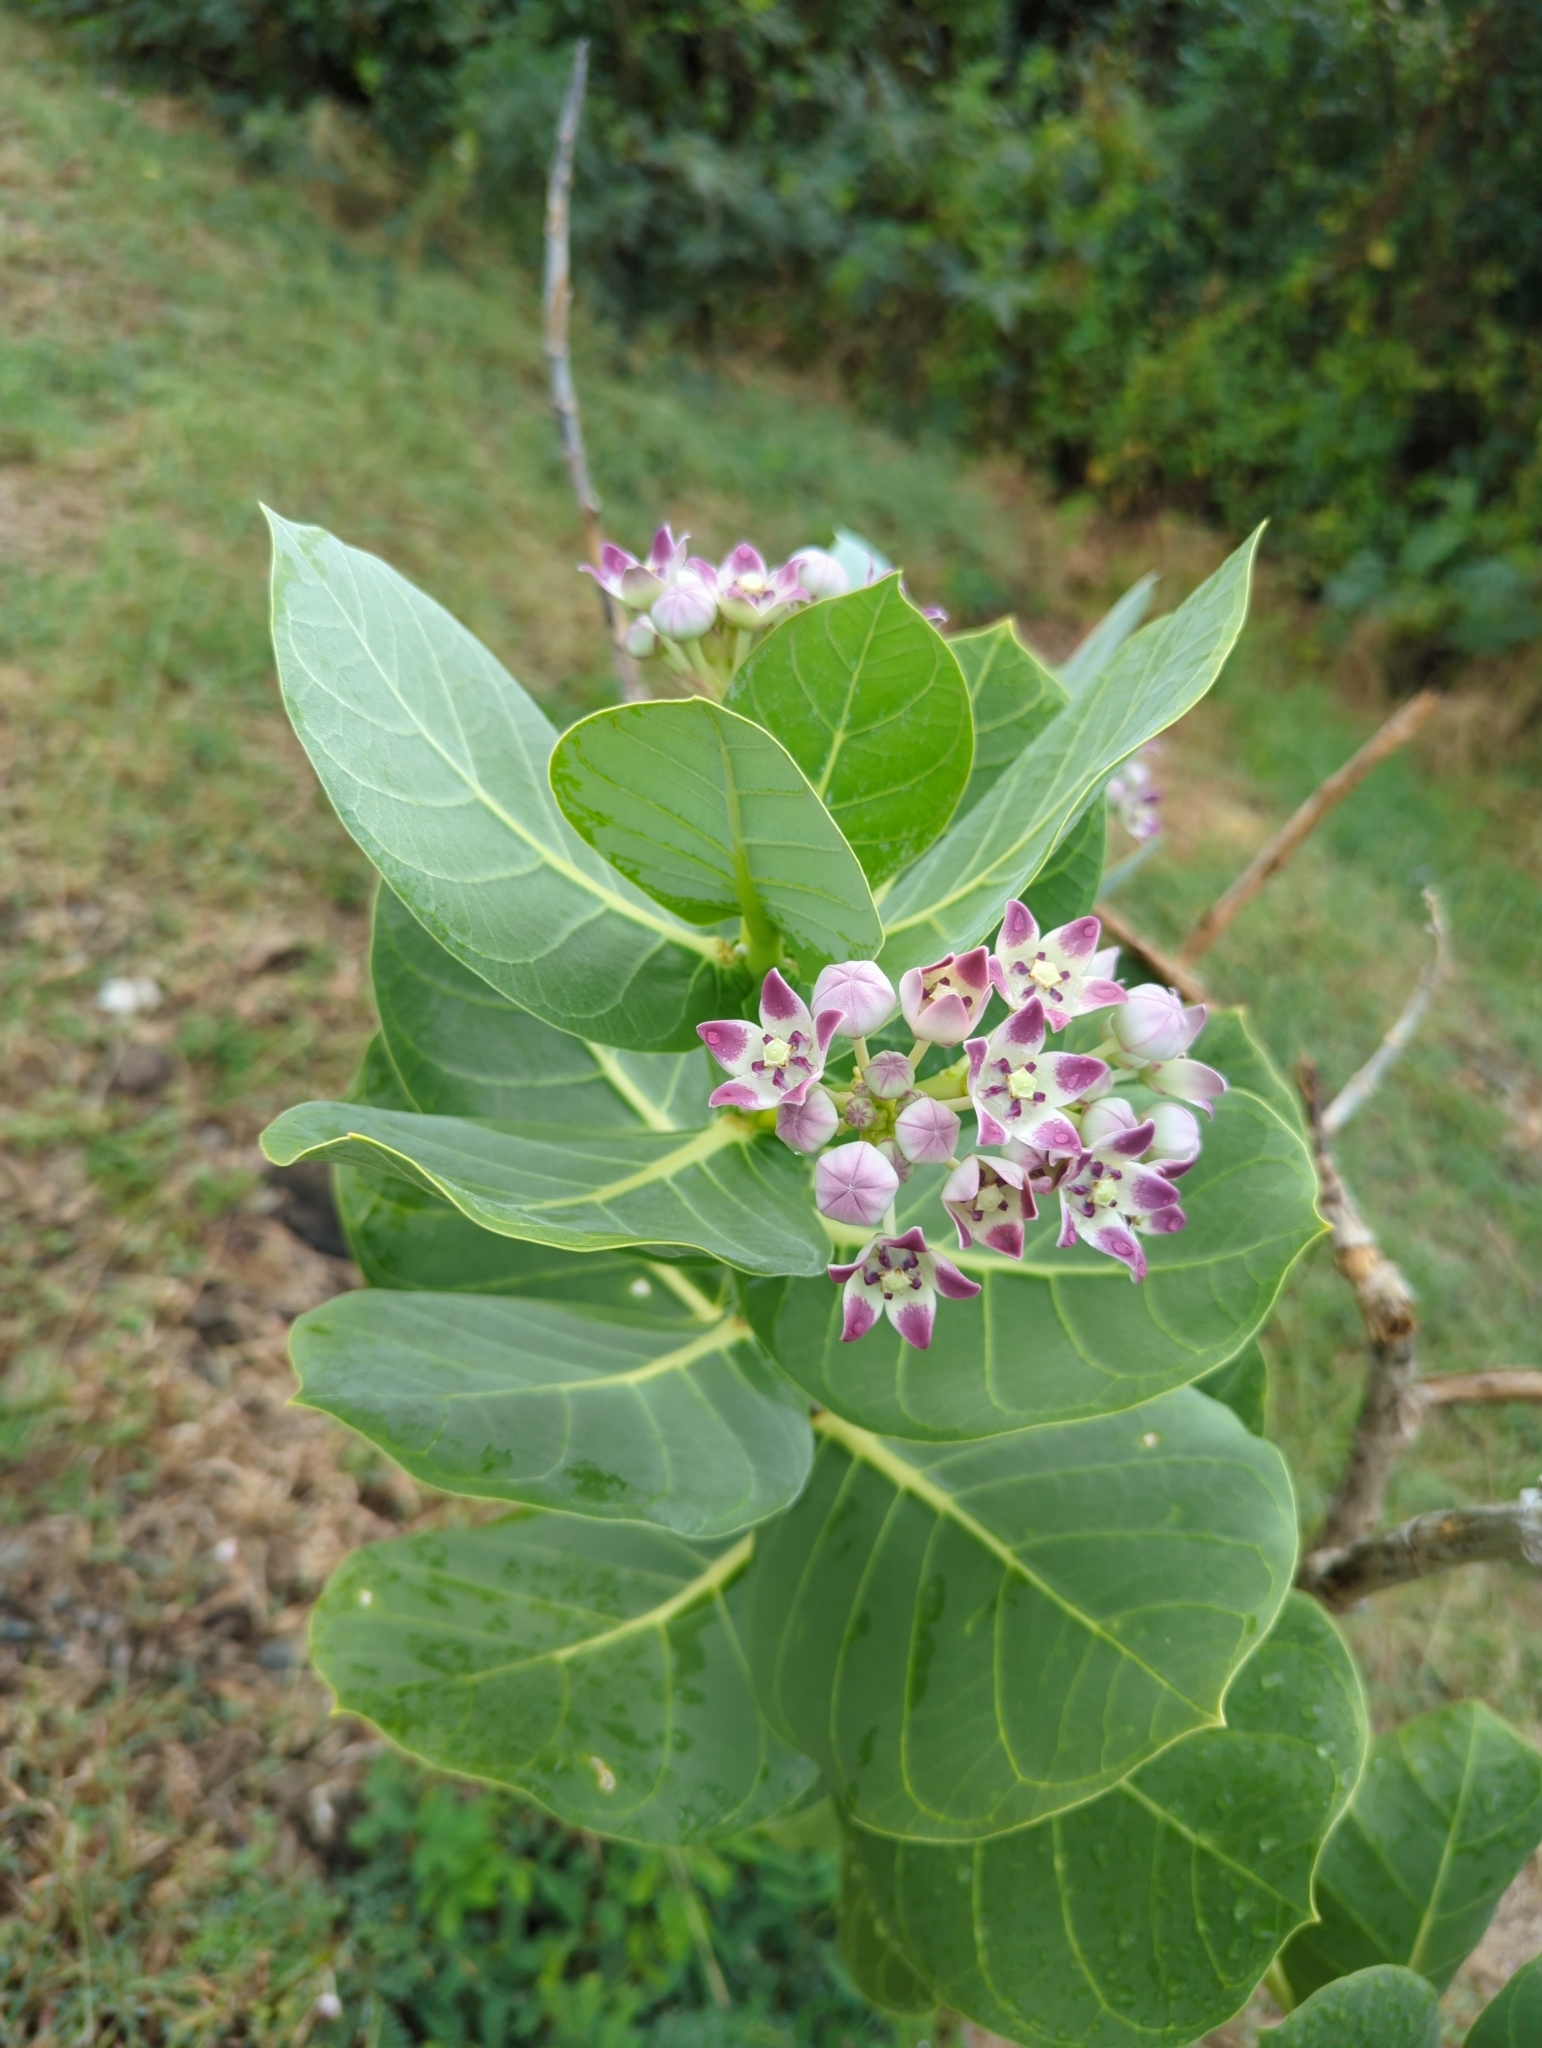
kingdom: Plantae
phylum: Tracheophyta
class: Magnoliopsida
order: Gentianales
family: Apocynaceae
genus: Calotropis
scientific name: Calotropis procera
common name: Roostertree
